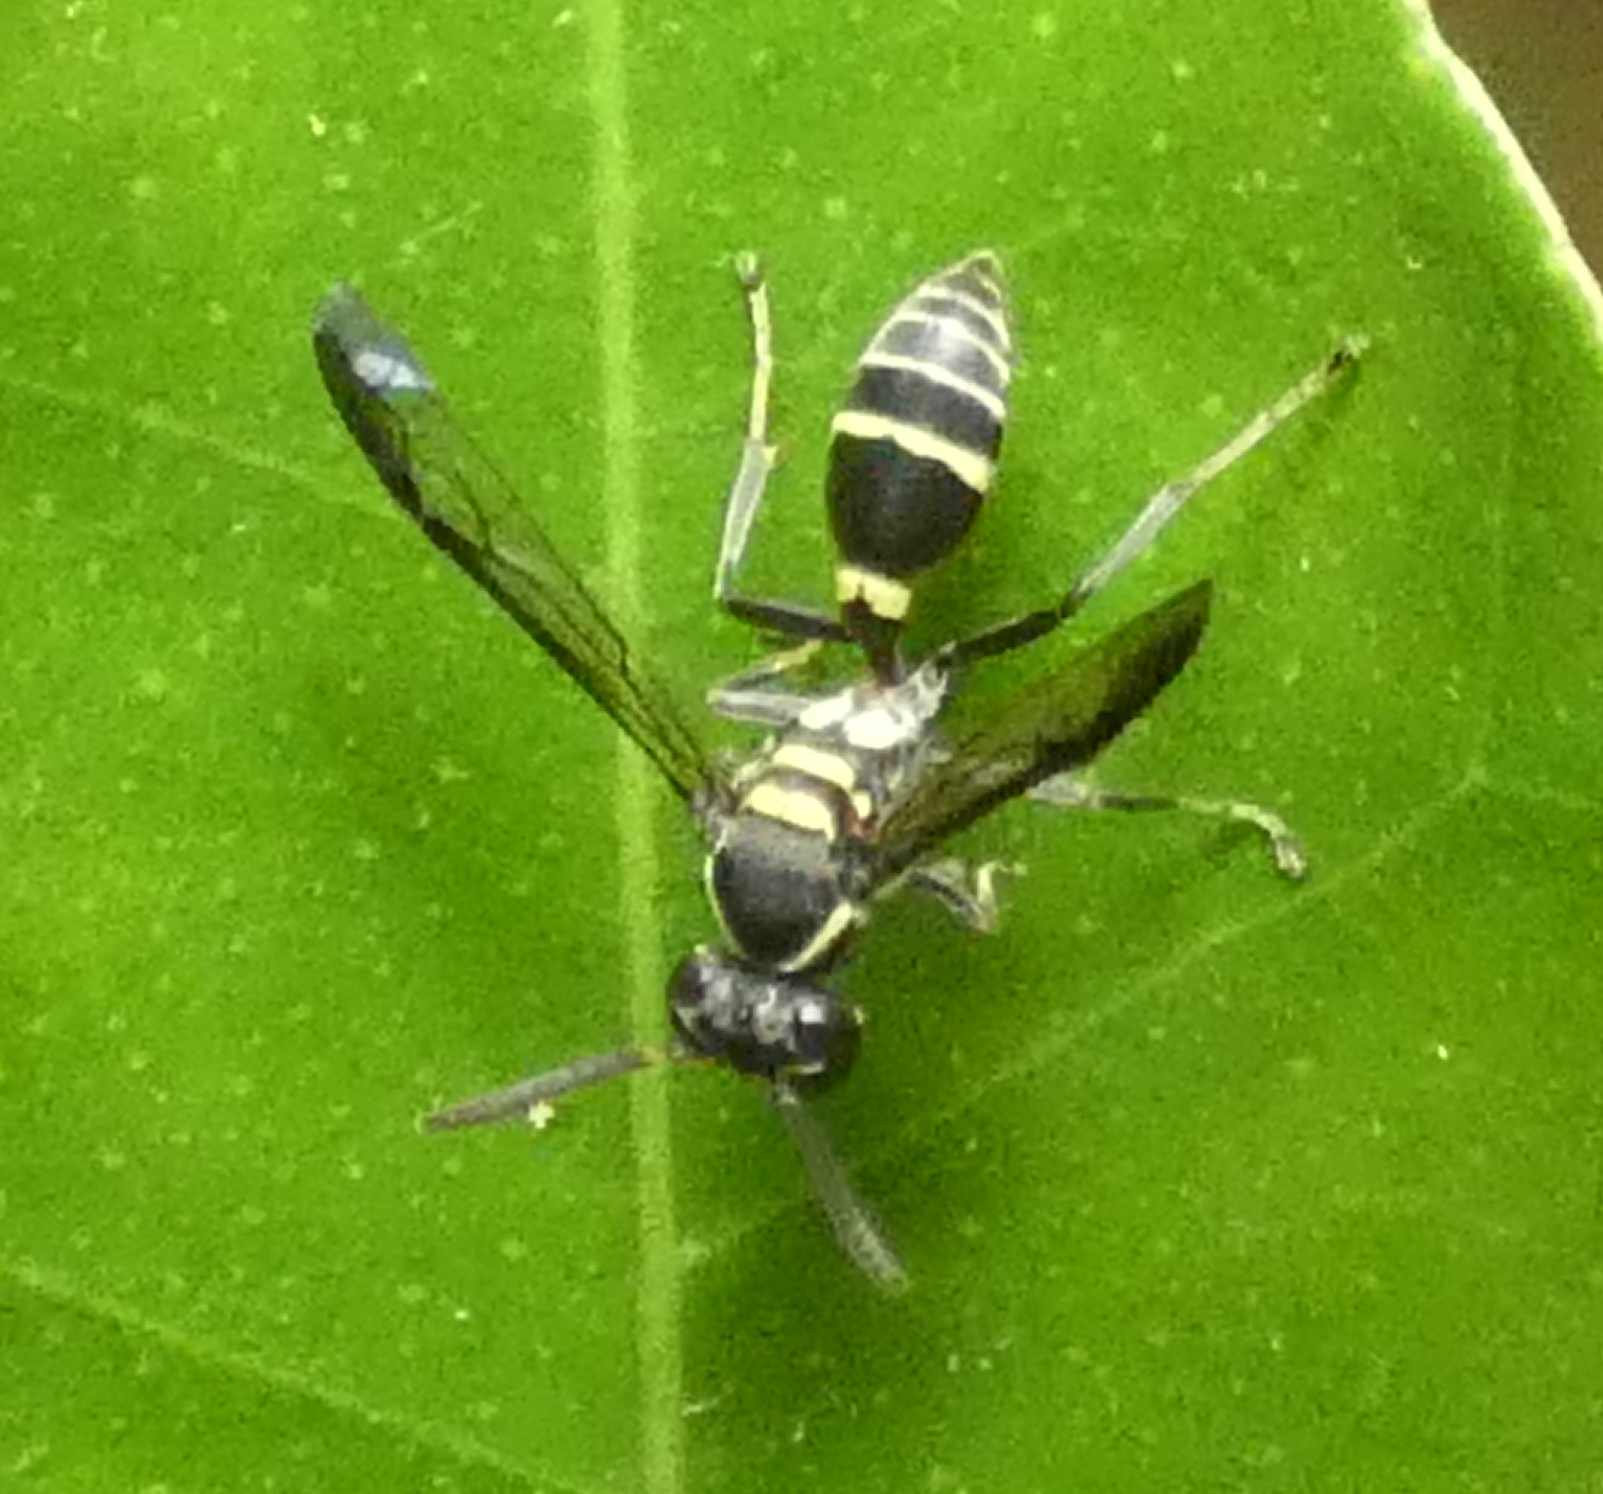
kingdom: Animalia
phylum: Arthropoda
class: Insecta
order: Hymenoptera
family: Eumenidae
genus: Polybia
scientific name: Polybia occidentalis
